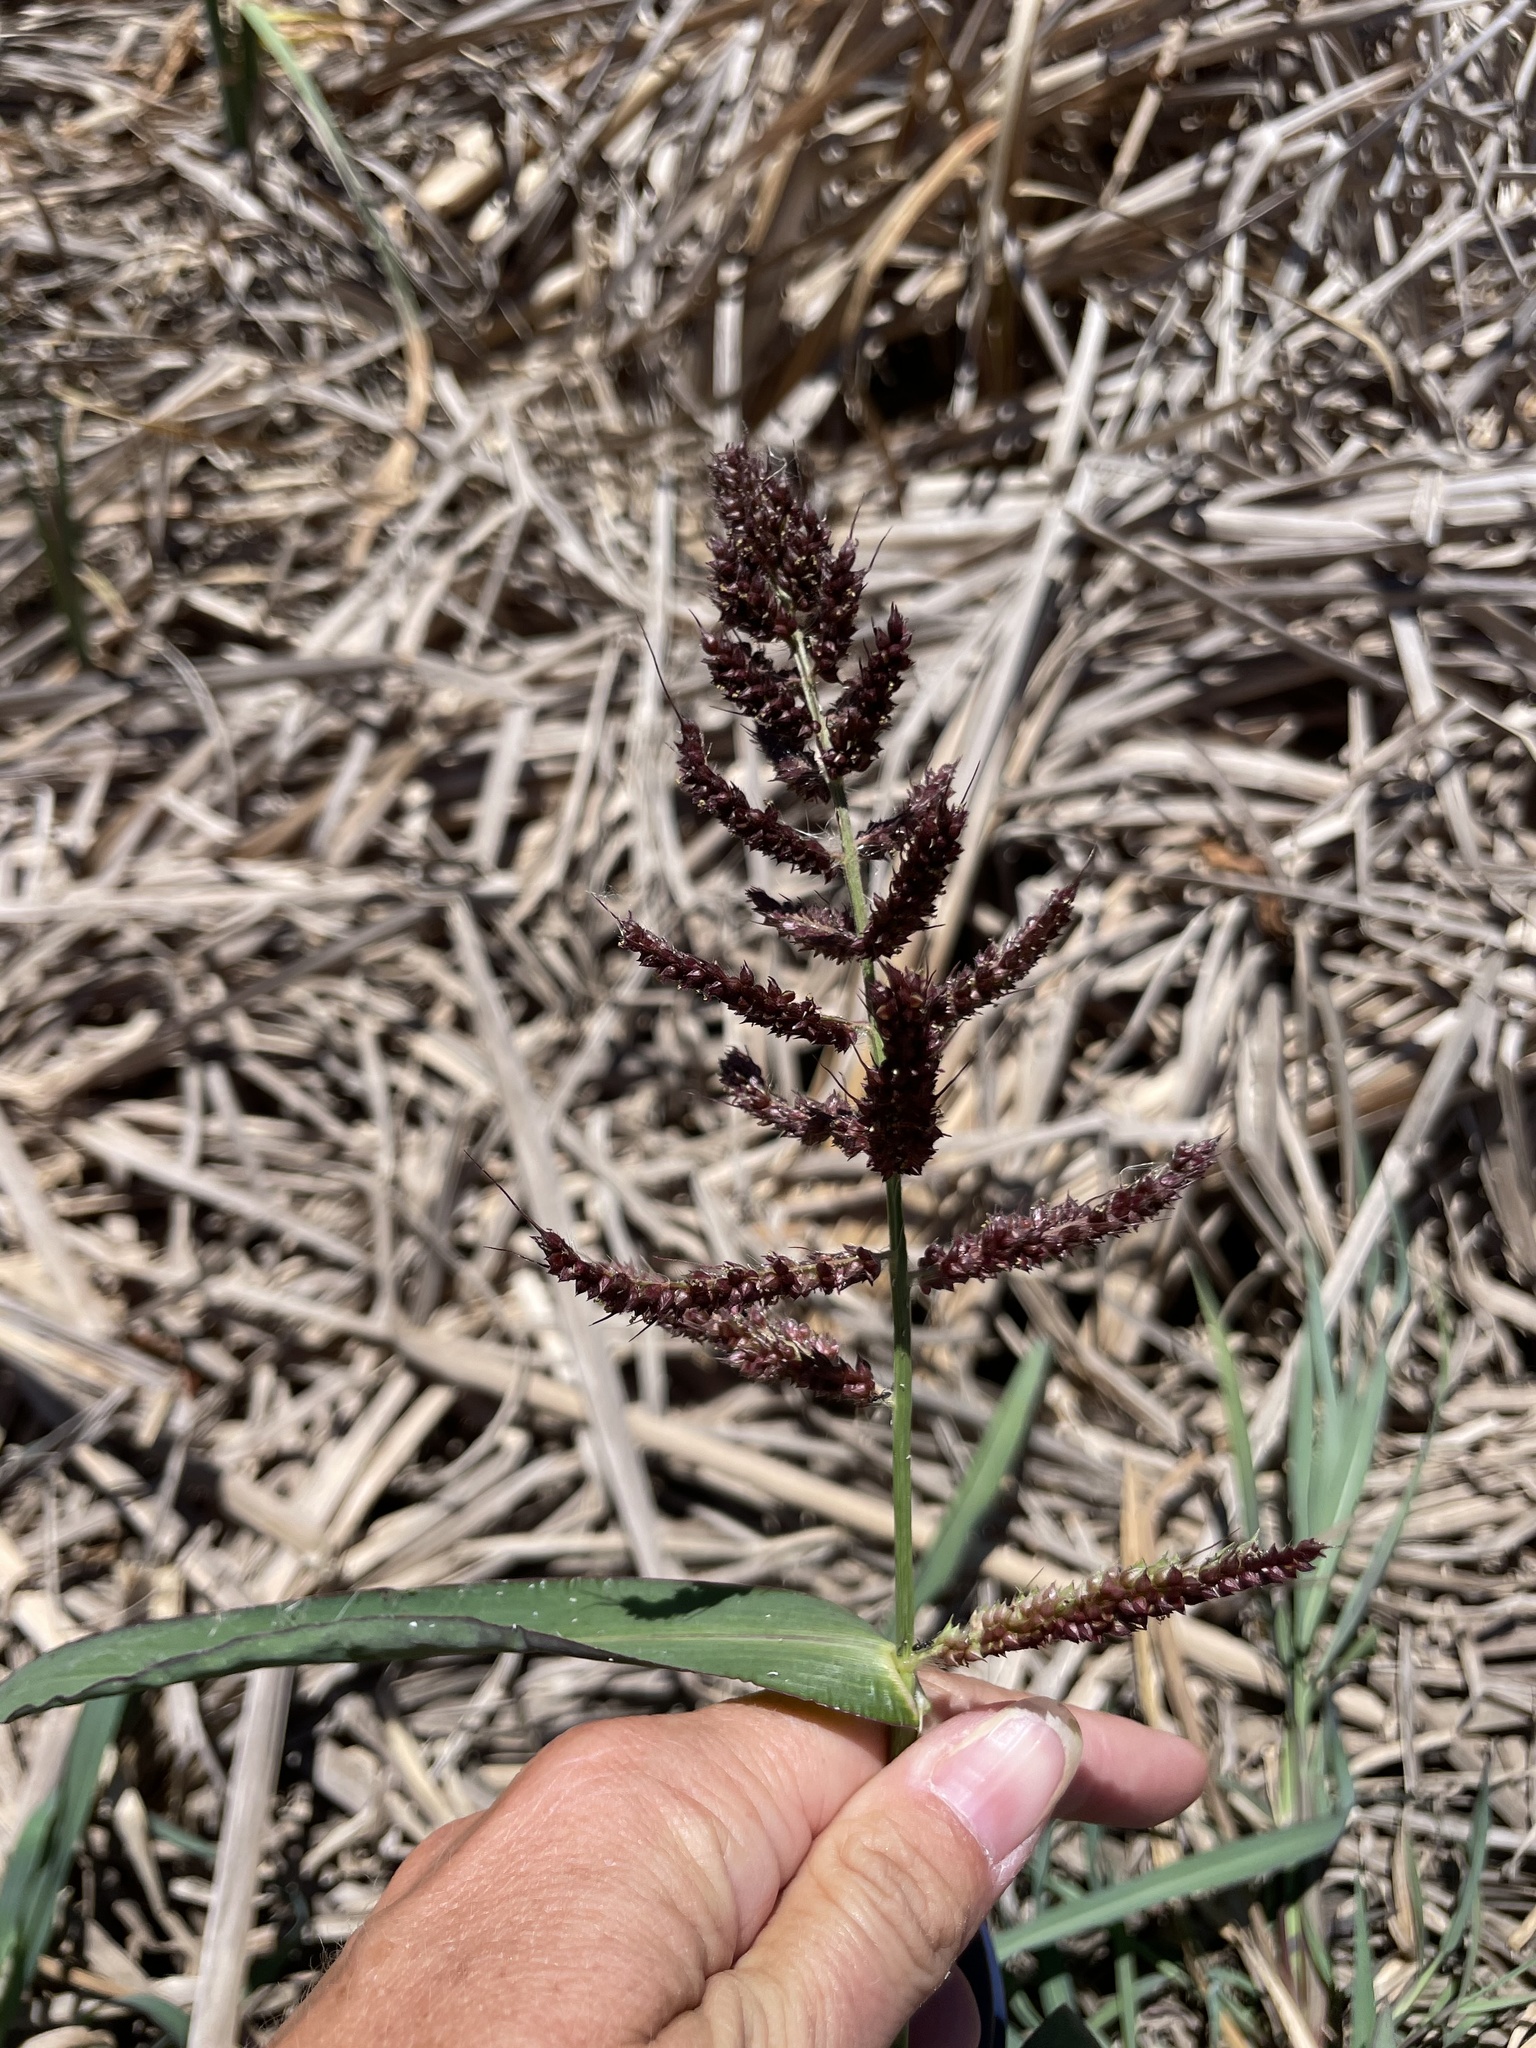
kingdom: Plantae
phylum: Tracheophyta
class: Liliopsida
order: Poales
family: Poaceae
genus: Echinochloa
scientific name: Echinochloa crus-galli
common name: Cockspur
